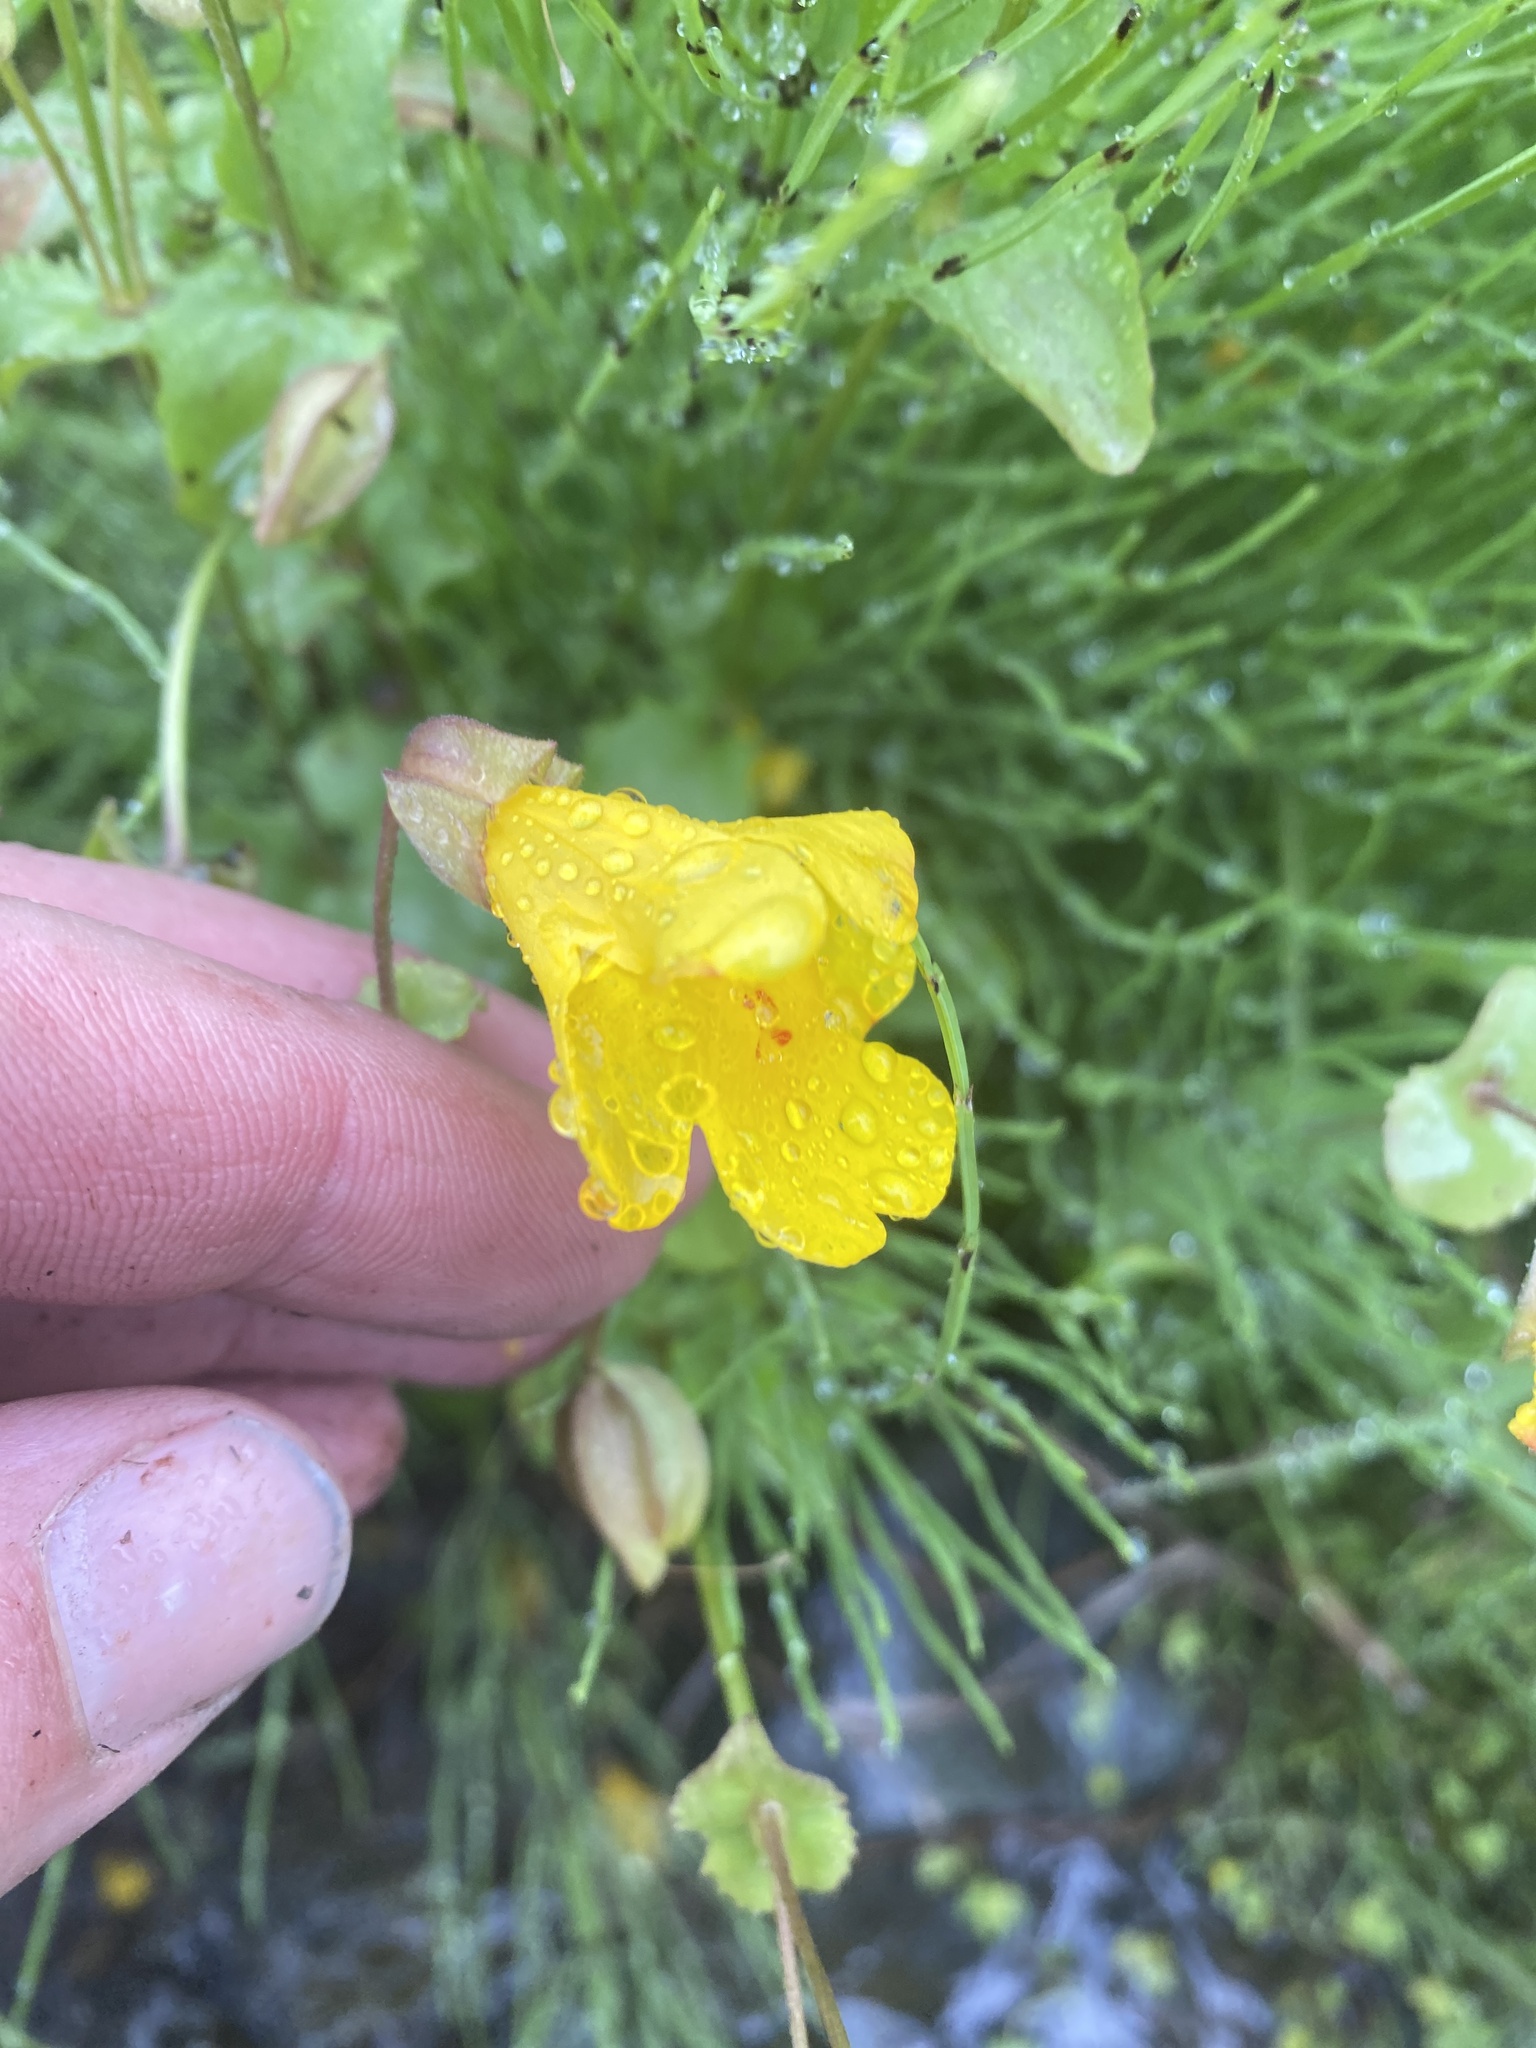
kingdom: Plantae
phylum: Tracheophyta
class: Magnoliopsida
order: Lamiales
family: Phrymaceae
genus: Erythranthe
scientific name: Erythranthe guttata
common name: Monkeyflower
